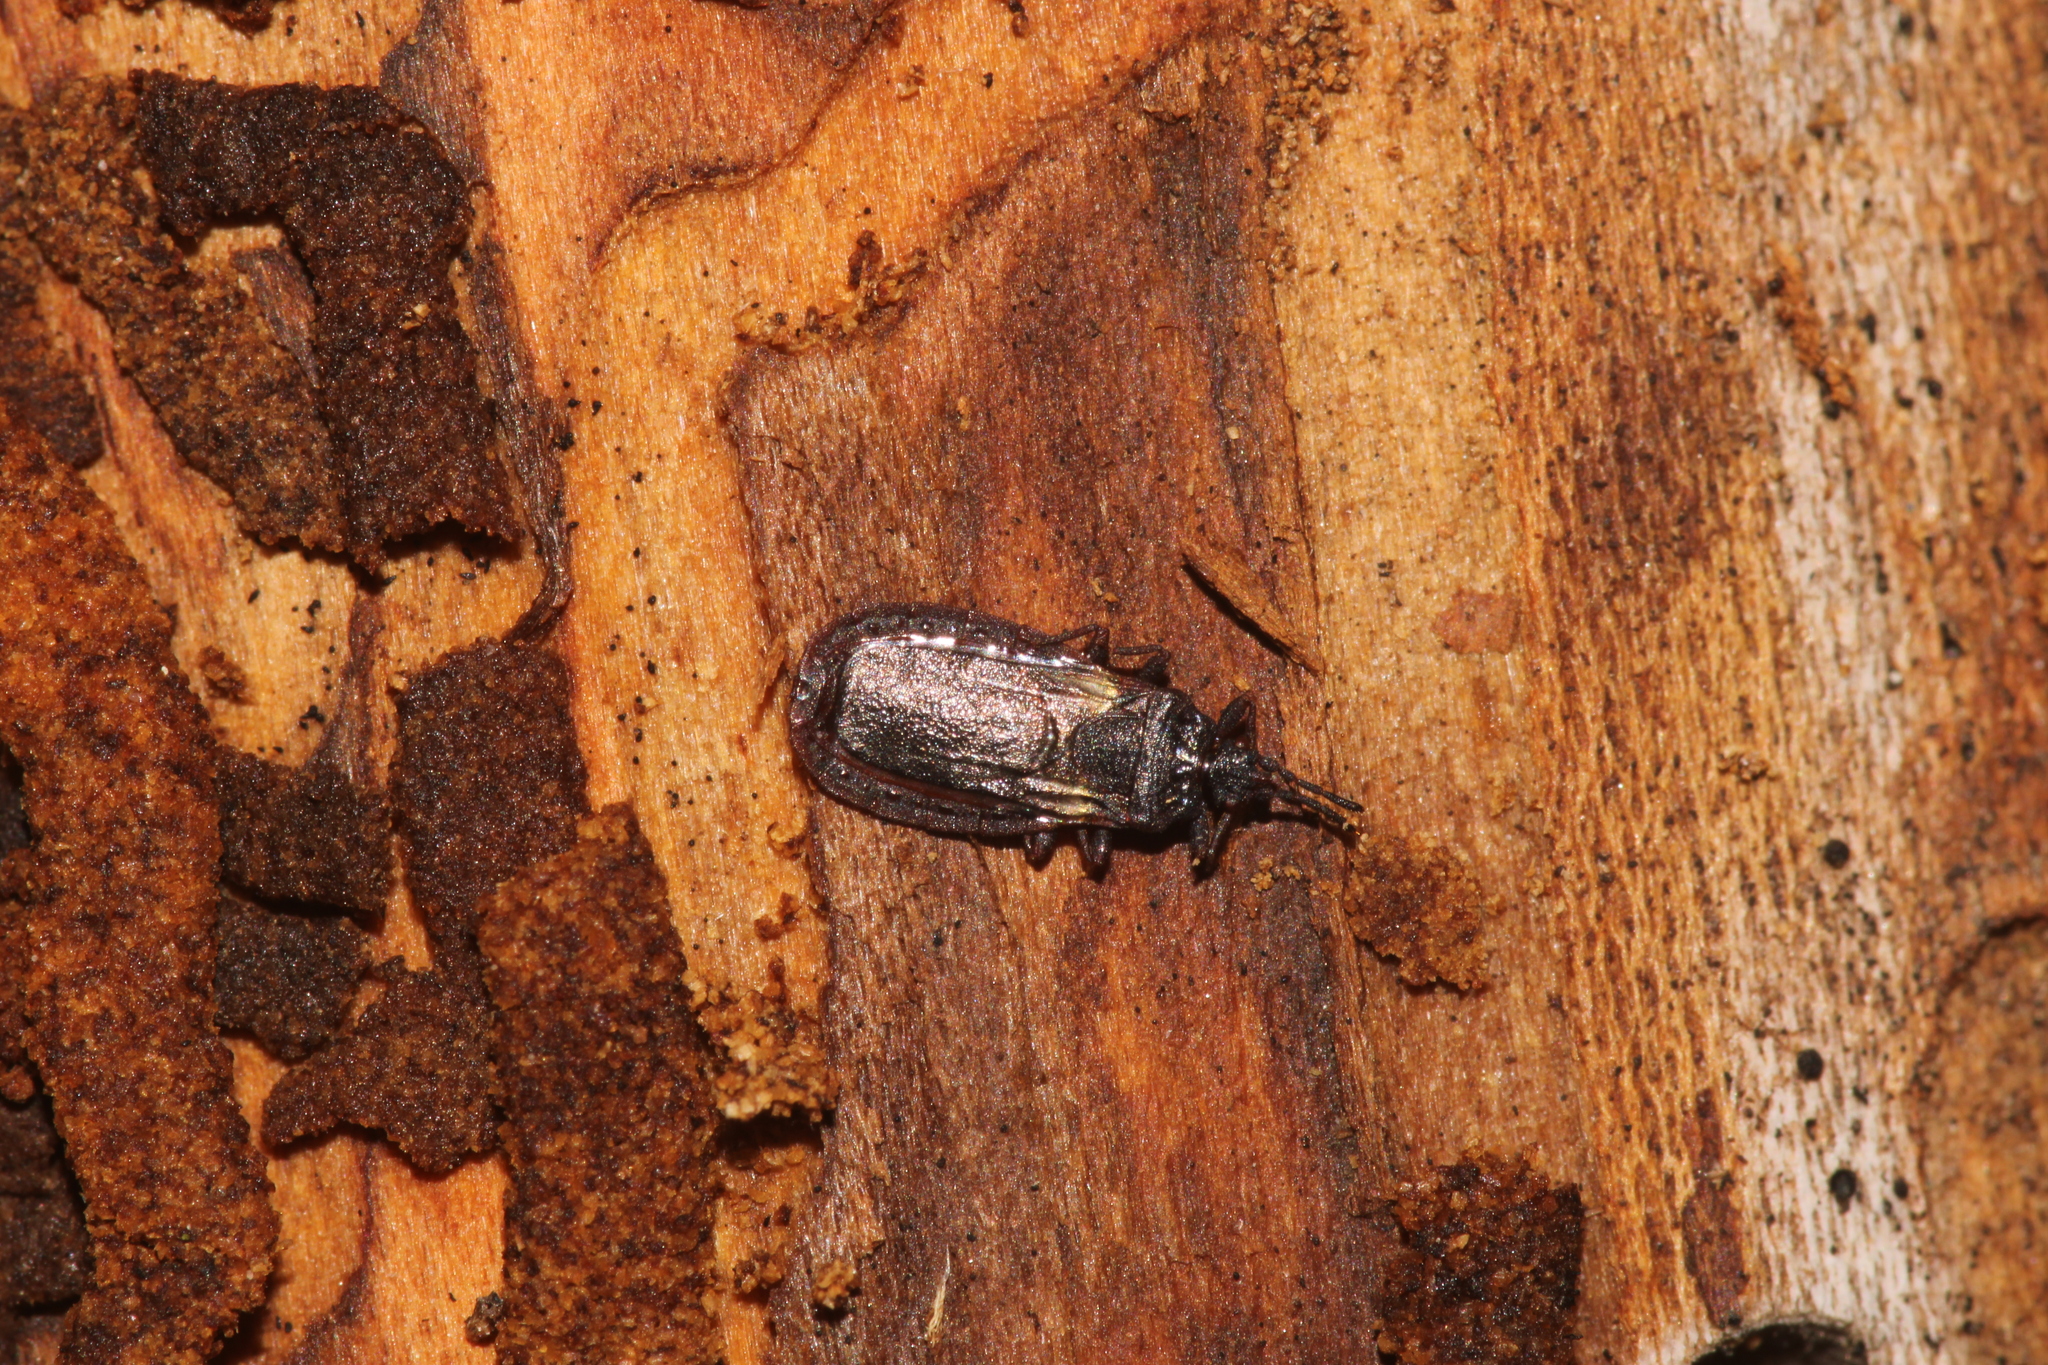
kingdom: Animalia
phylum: Arthropoda
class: Insecta
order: Hemiptera
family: Aradidae
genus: Aneurus
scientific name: Aneurus avenius
